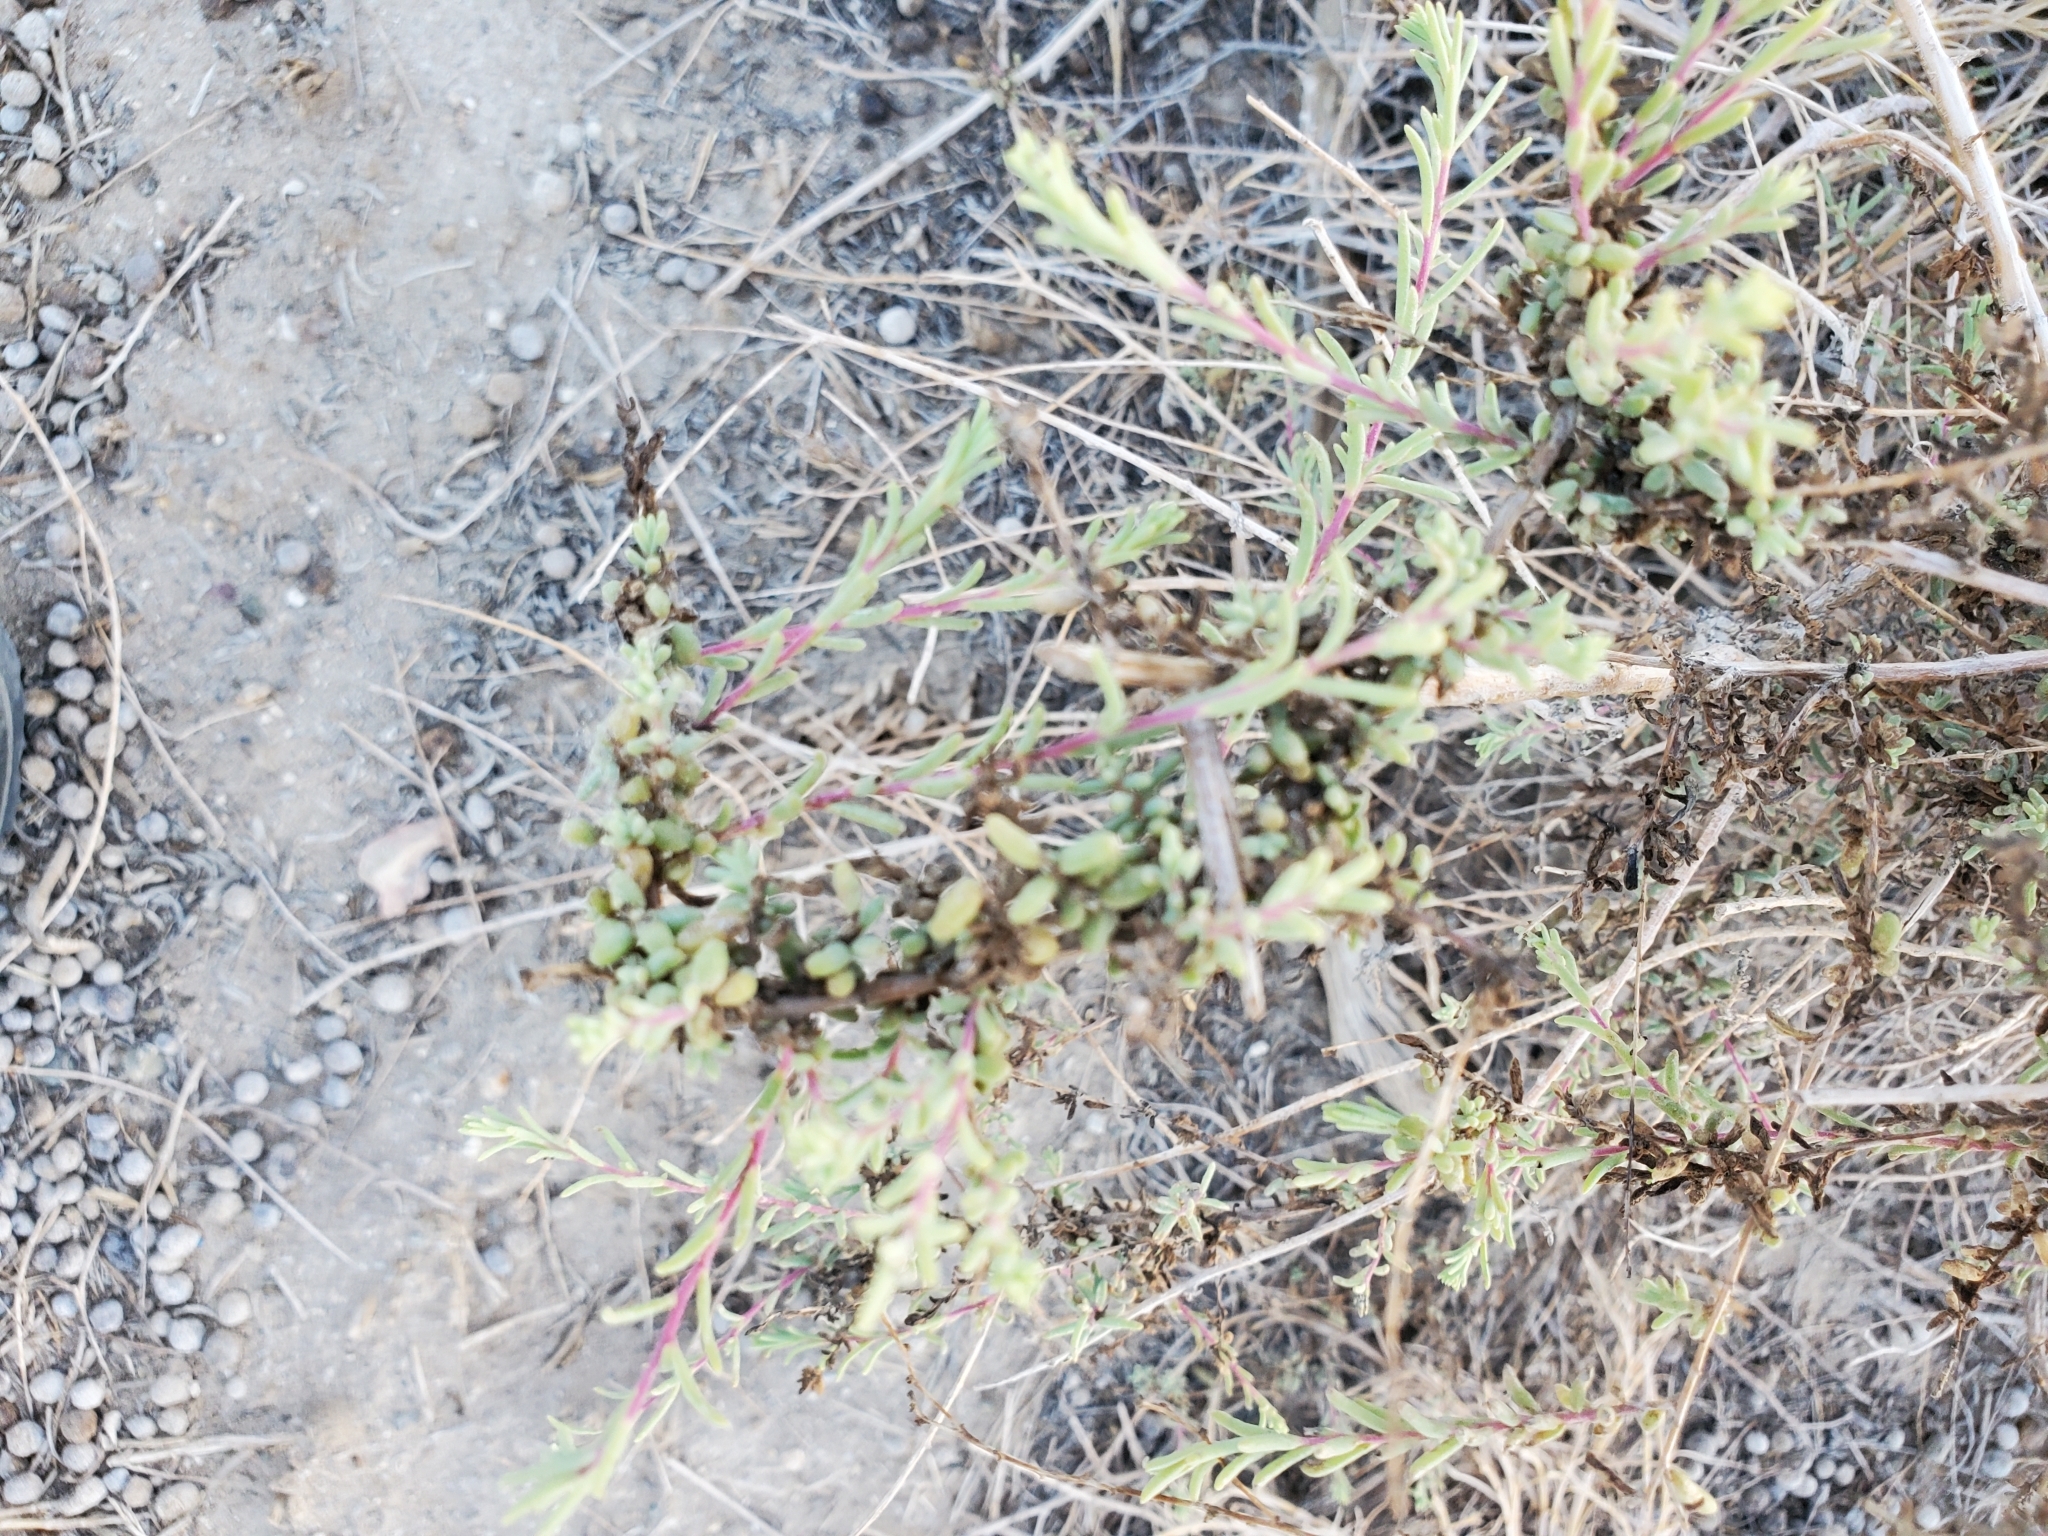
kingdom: Plantae
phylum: Tracheophyta
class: Magnoliopsida
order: Caryophyllales
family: Amaranthaceae
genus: Allenrolfea
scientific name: Allenrolfea occidentalis
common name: Iodine-bush
